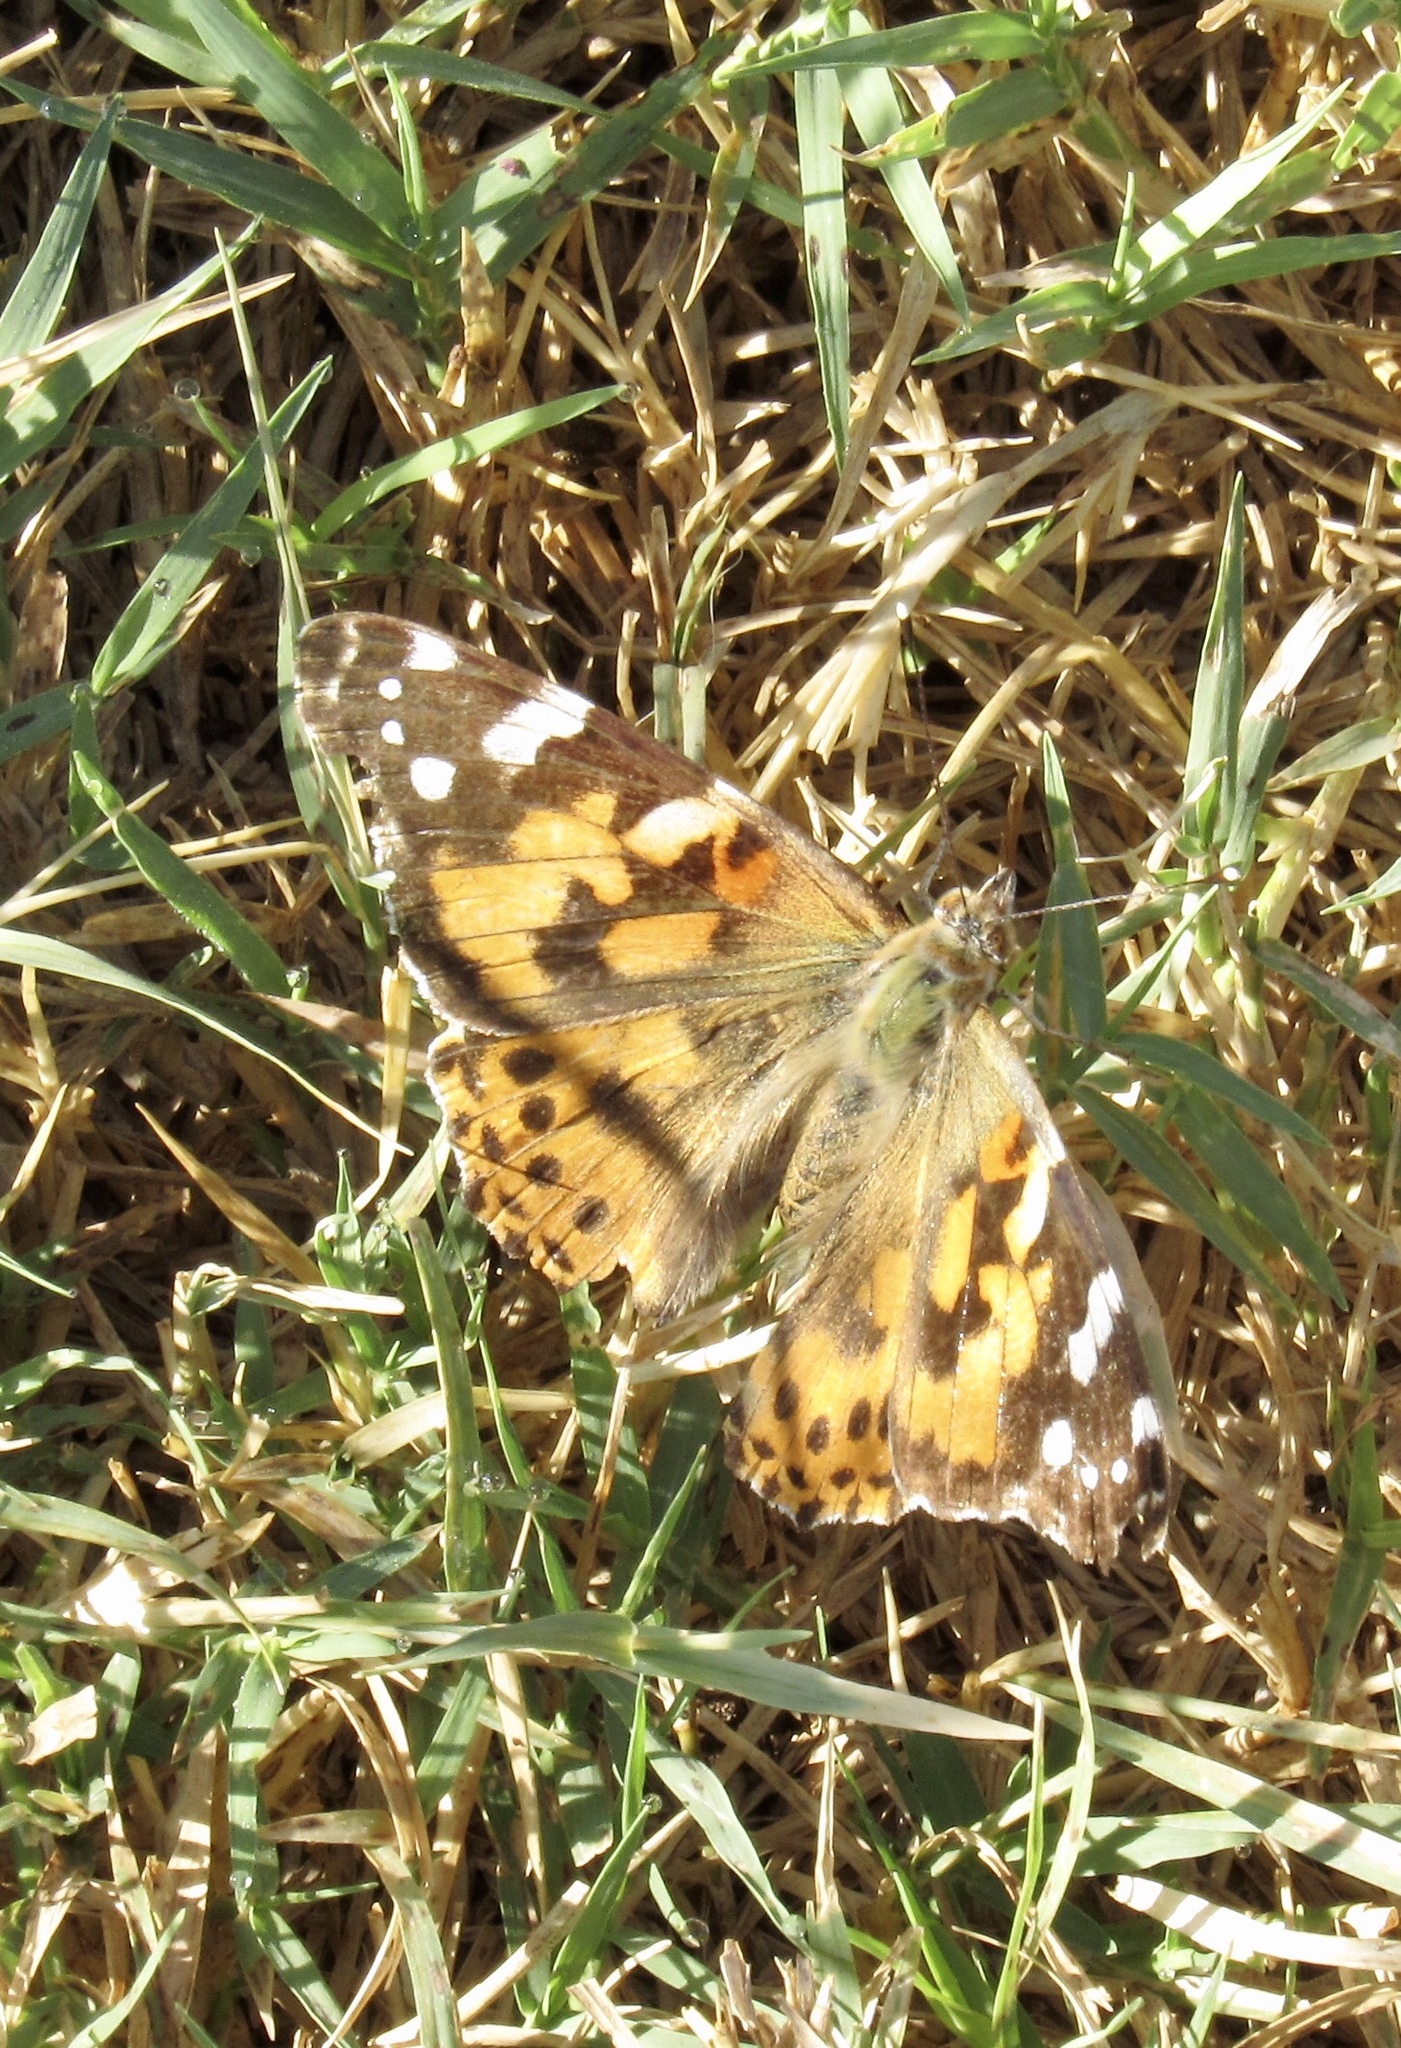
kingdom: Animalia
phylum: Arthropoda
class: Insecta
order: Lepidoptera
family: Nymphalidae
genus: Vanessa
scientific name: Vanessa cardui
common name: Painted lady
